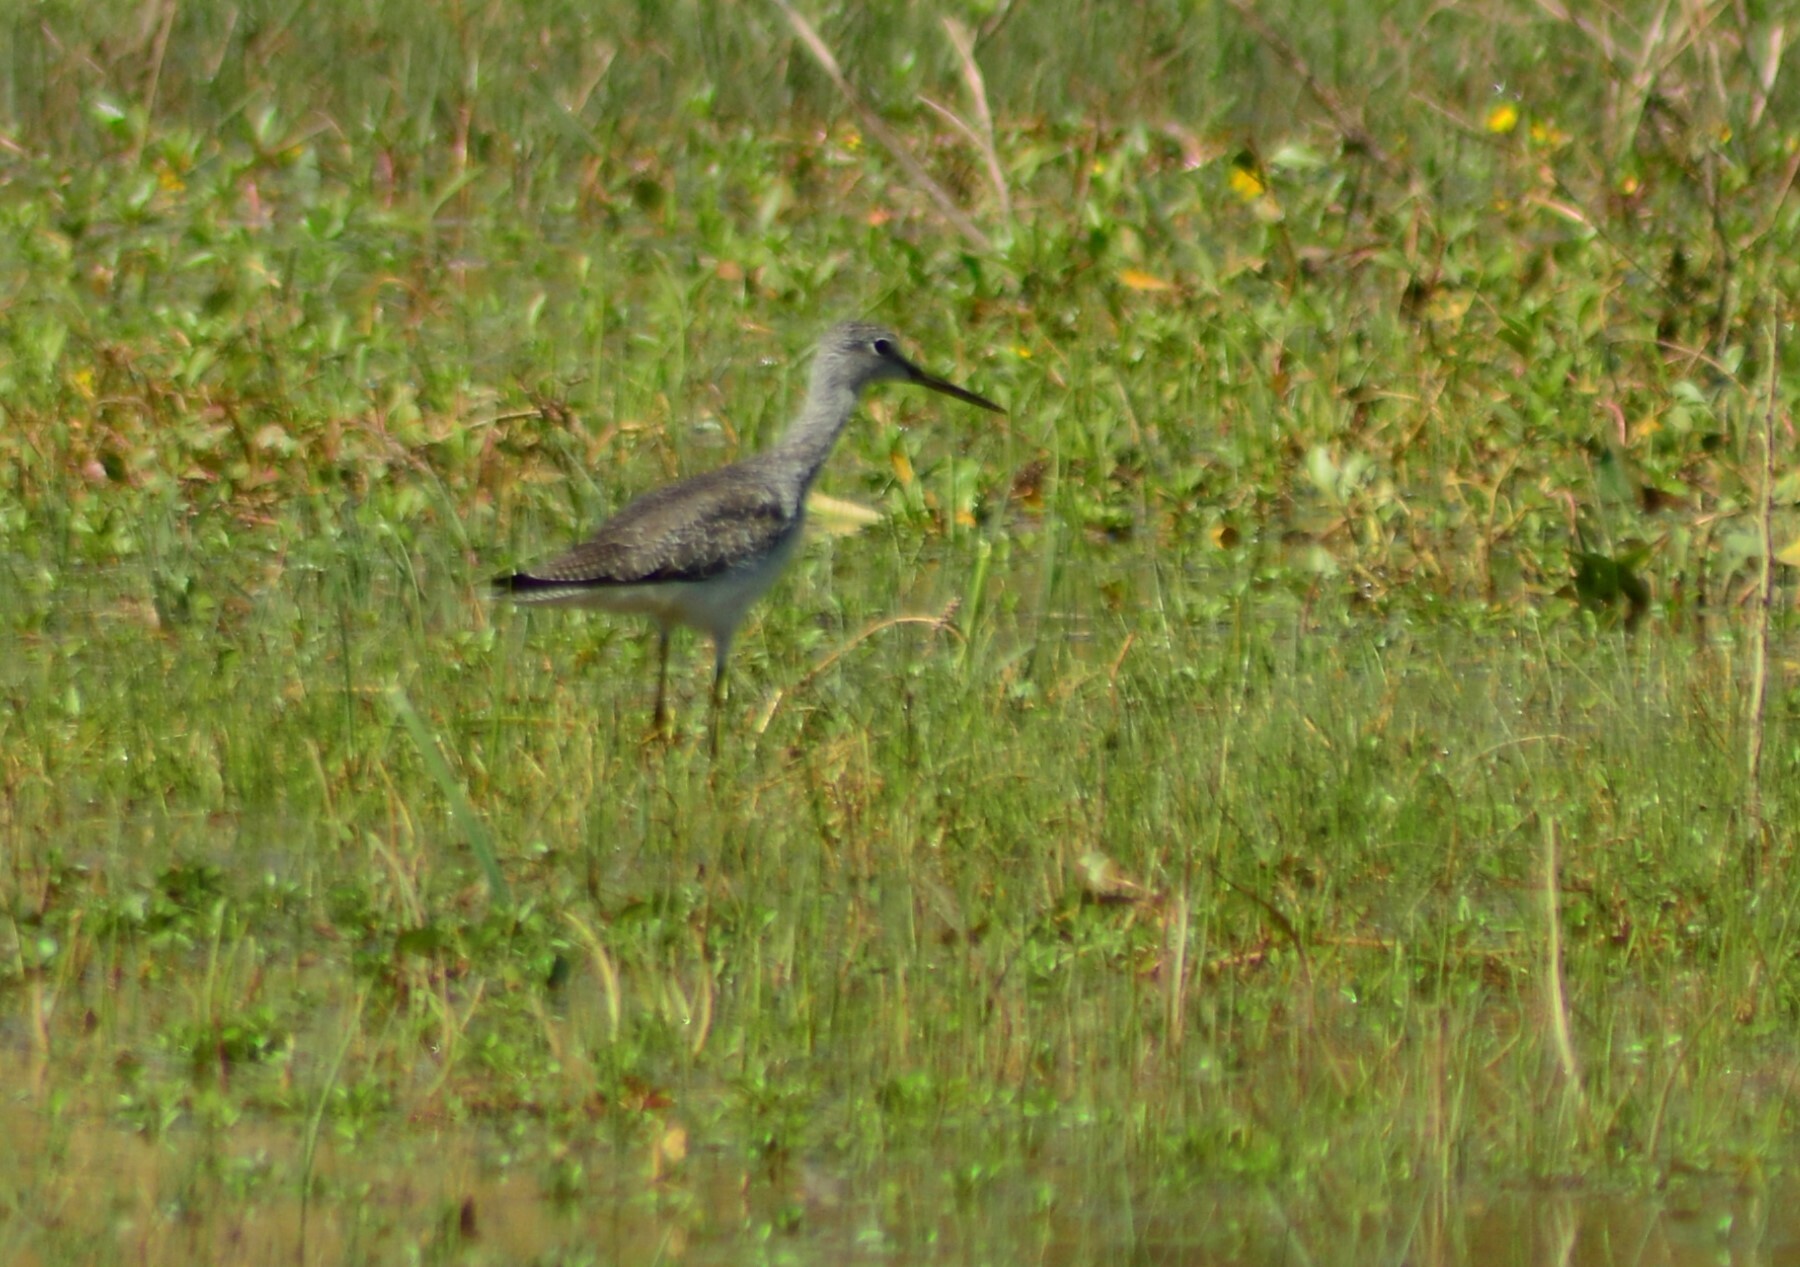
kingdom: Animalia
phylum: Chordata
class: Aves
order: Charadriiformes
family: Scolopacidae
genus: Tringa
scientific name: Tringa melanoleuca
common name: Greater yellowlegs
